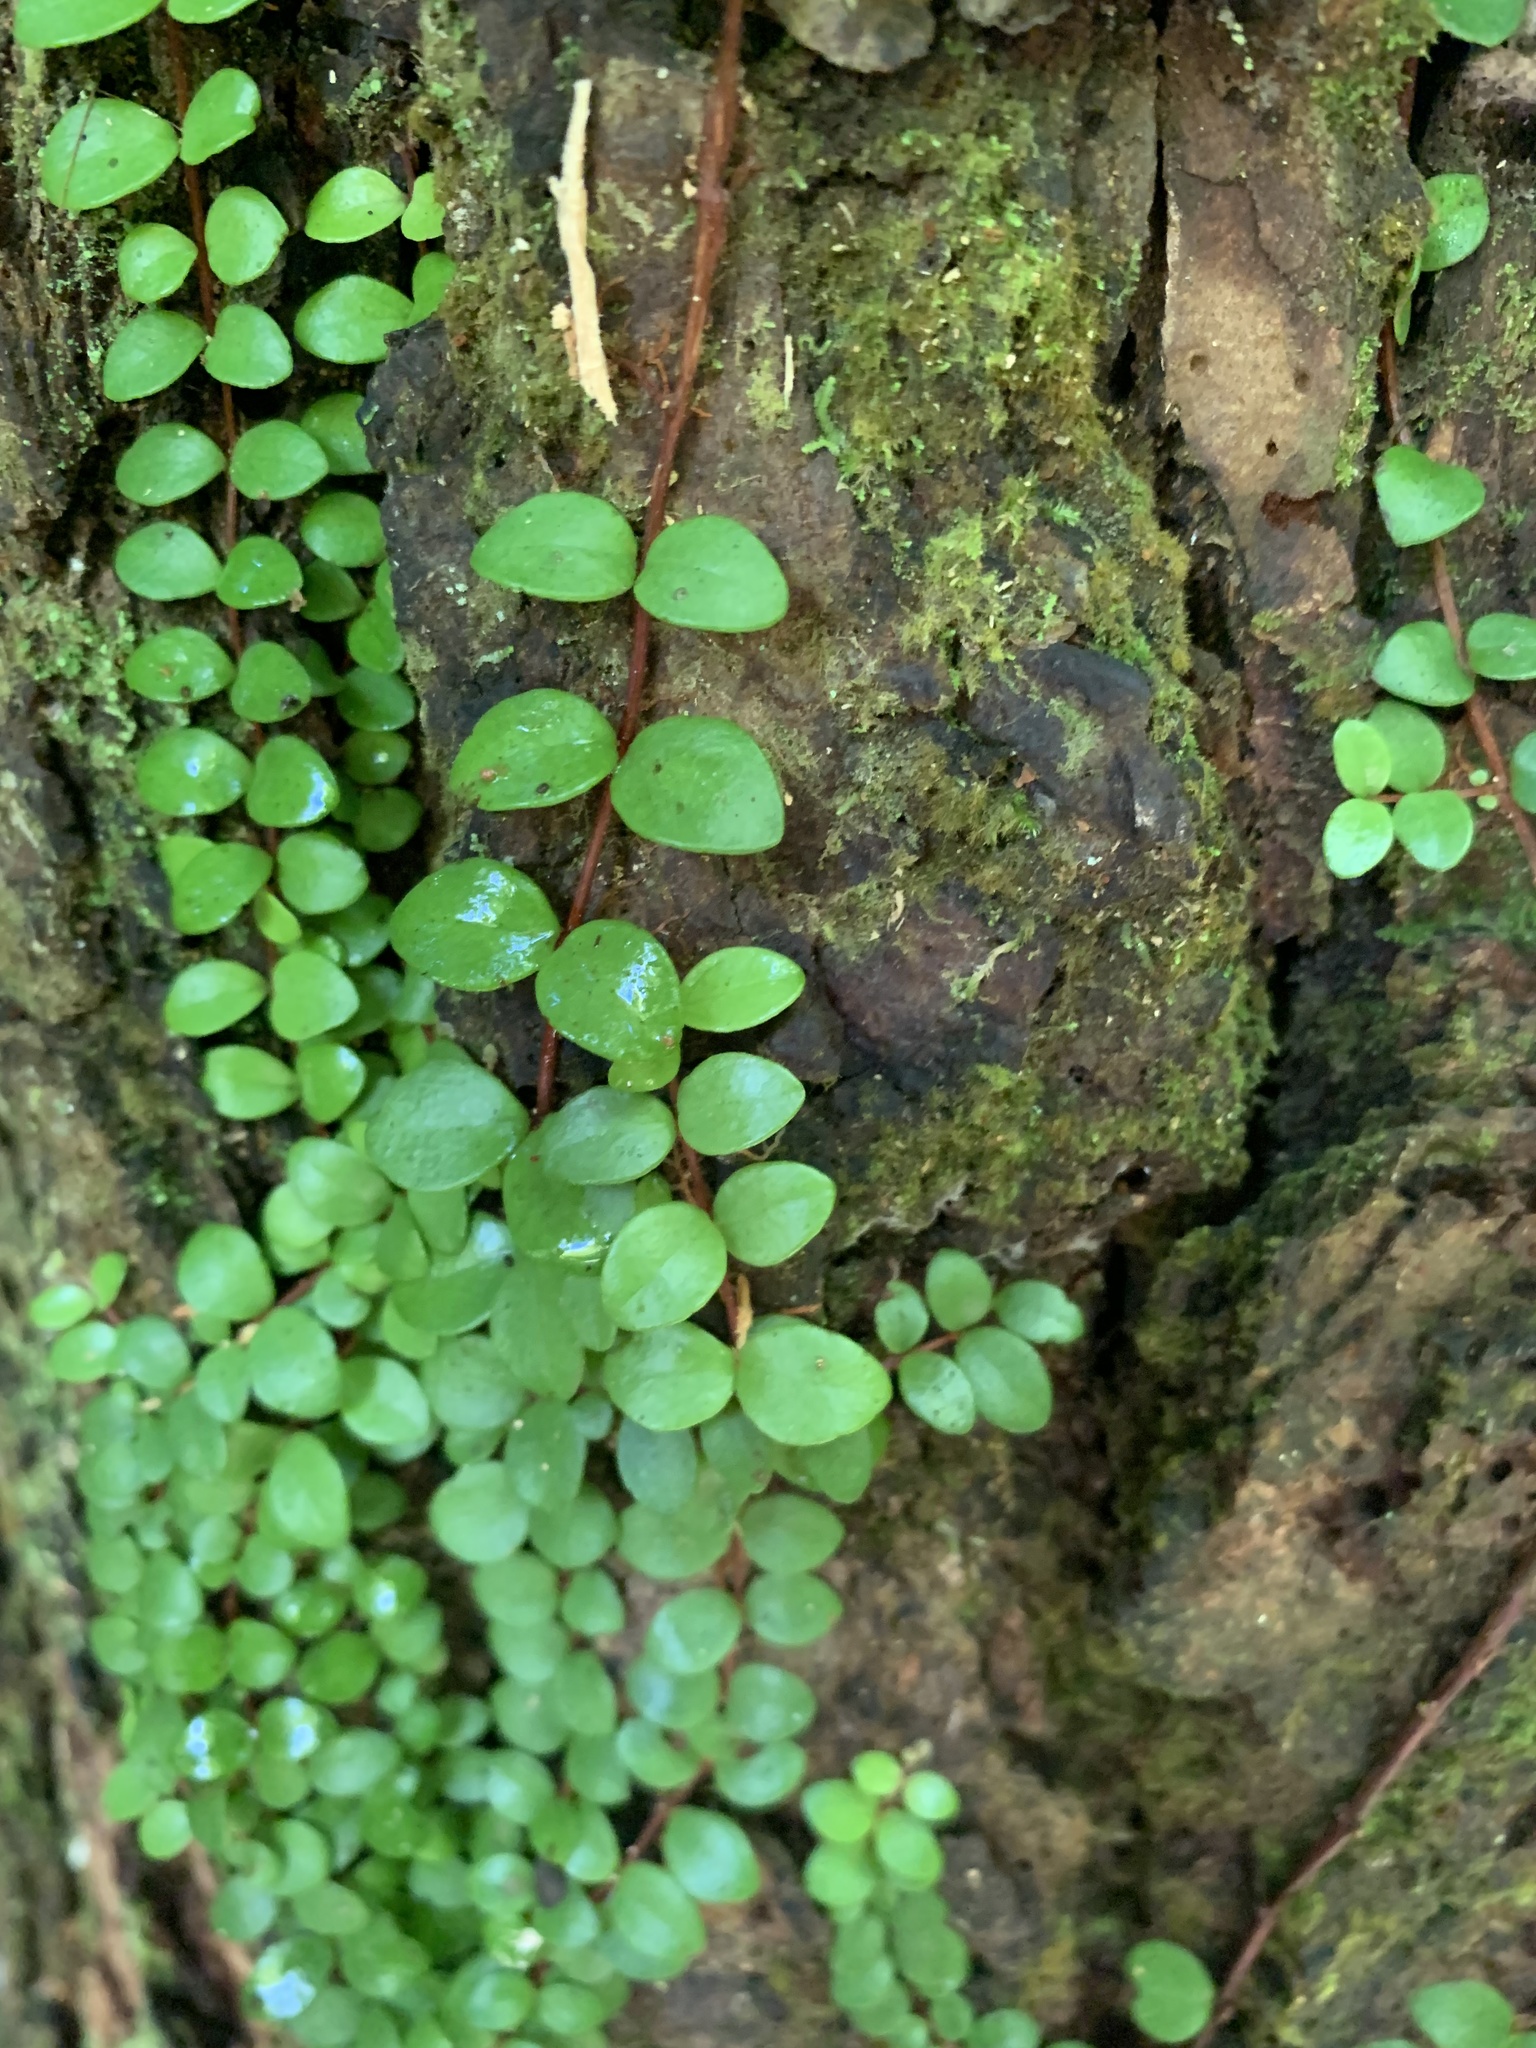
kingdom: Plantae
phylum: Tracheophyta
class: Magnoliopsida
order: Myrtales
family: Myrtaceae
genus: Metrosideros
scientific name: Metrosideros fulgens
